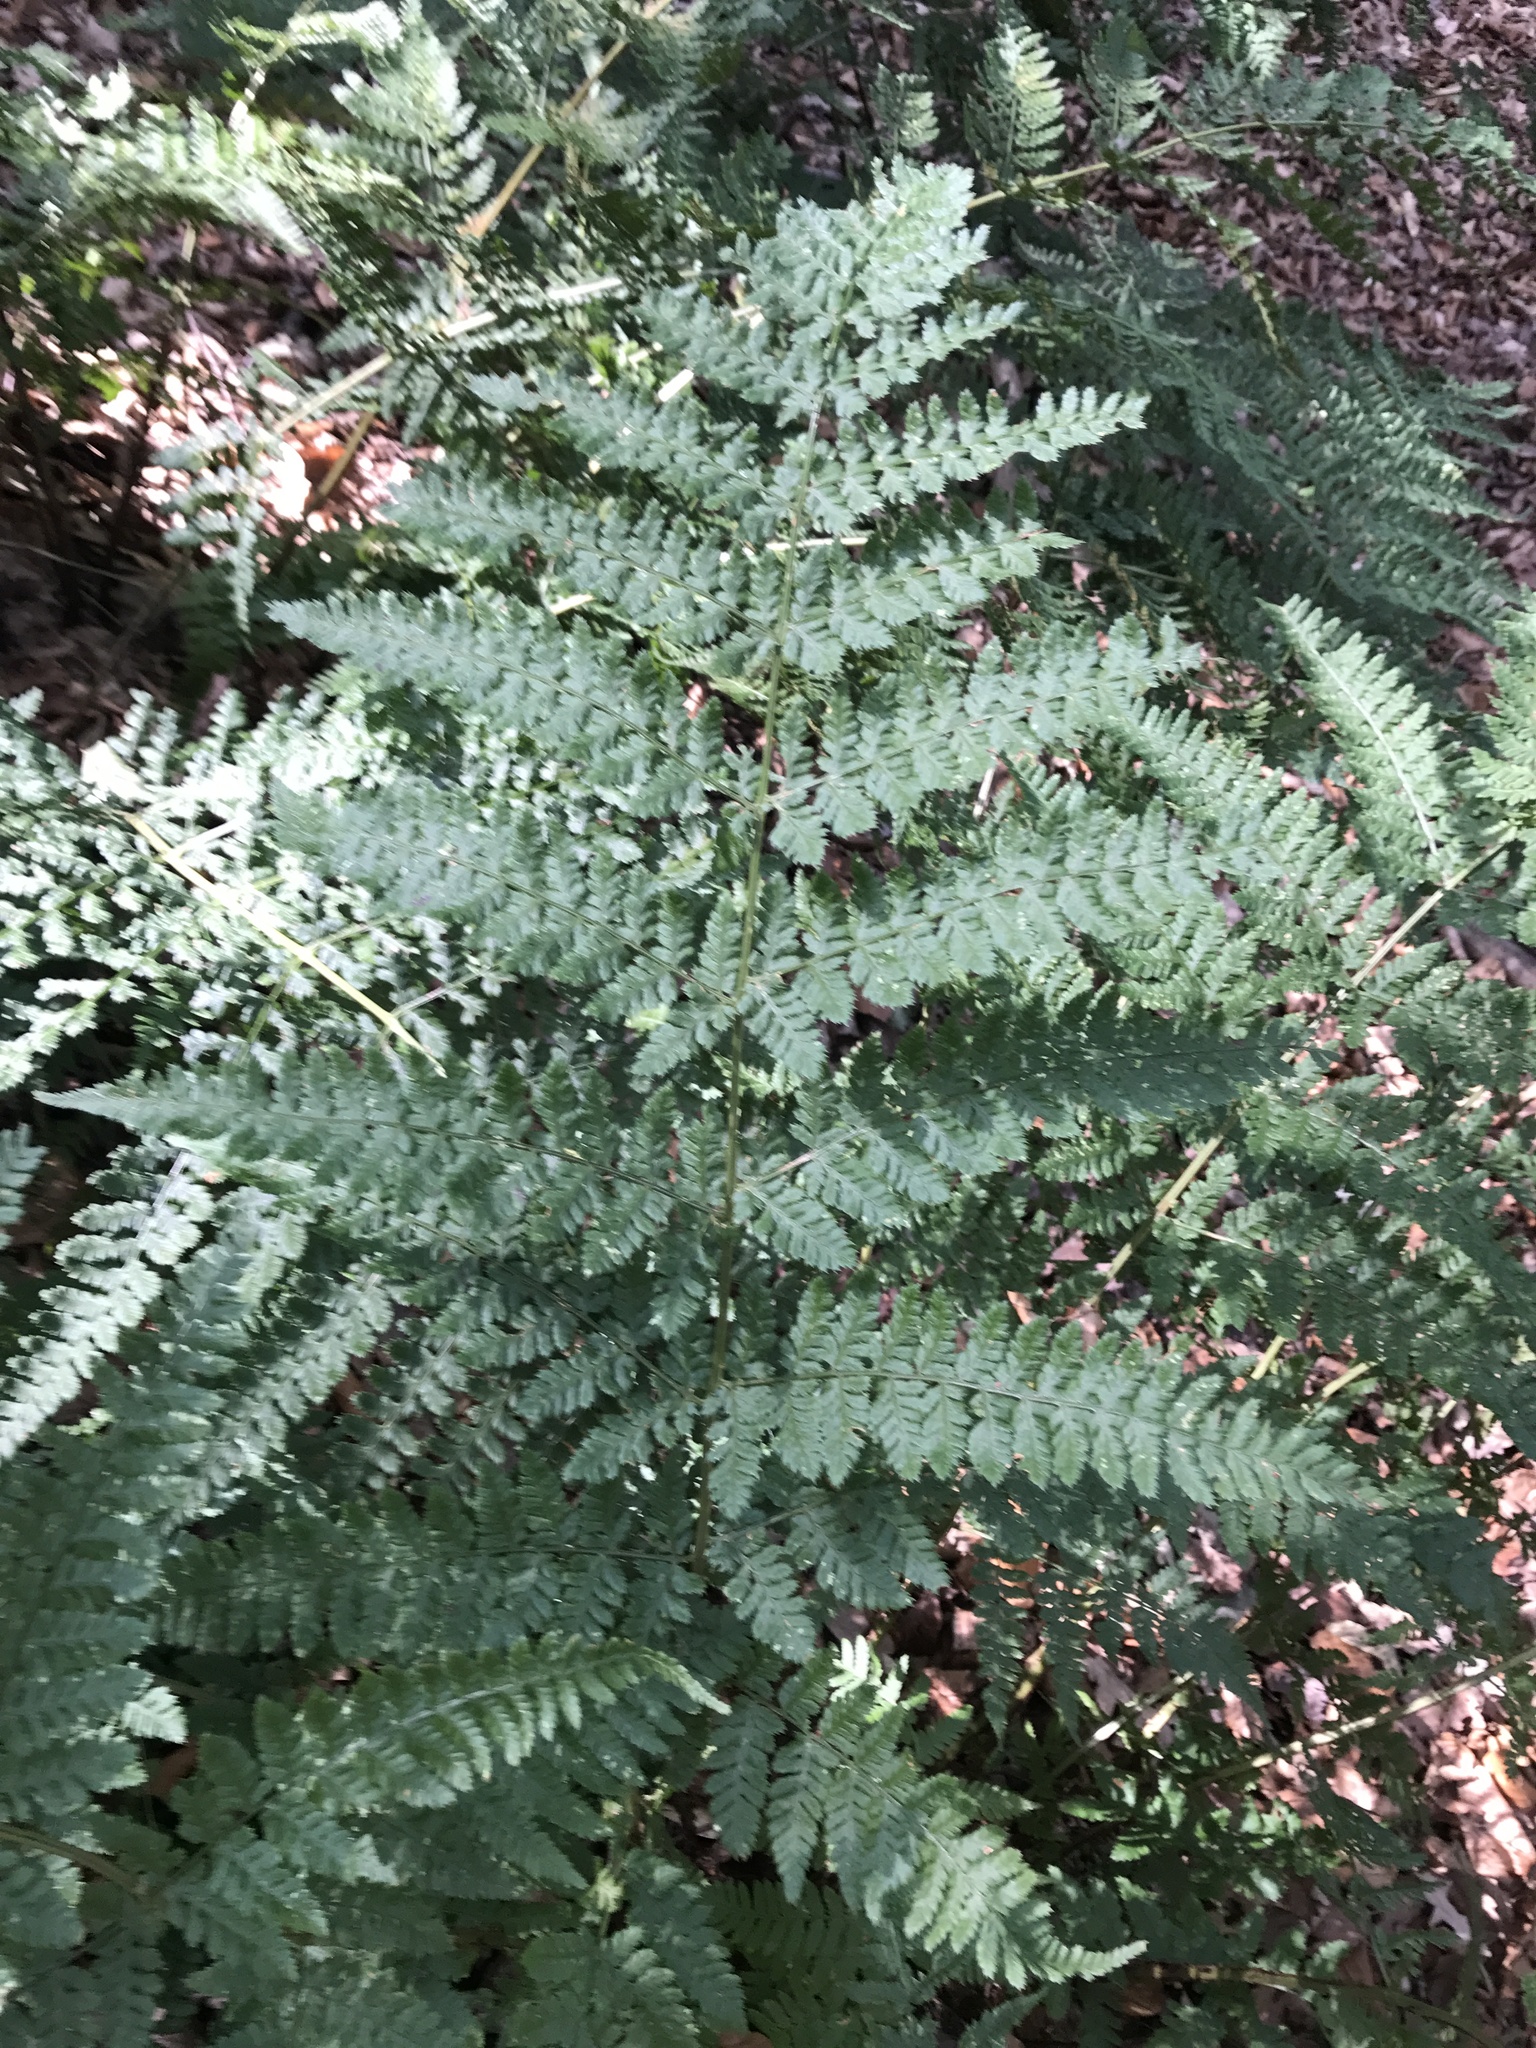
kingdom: Plantae
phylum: Tracheophyta
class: Polypodiopsida
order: Polypodiales
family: Dryopteridaceae
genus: Dryopteris
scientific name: Dryopteris dilatata
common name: Broad buckler-fern
